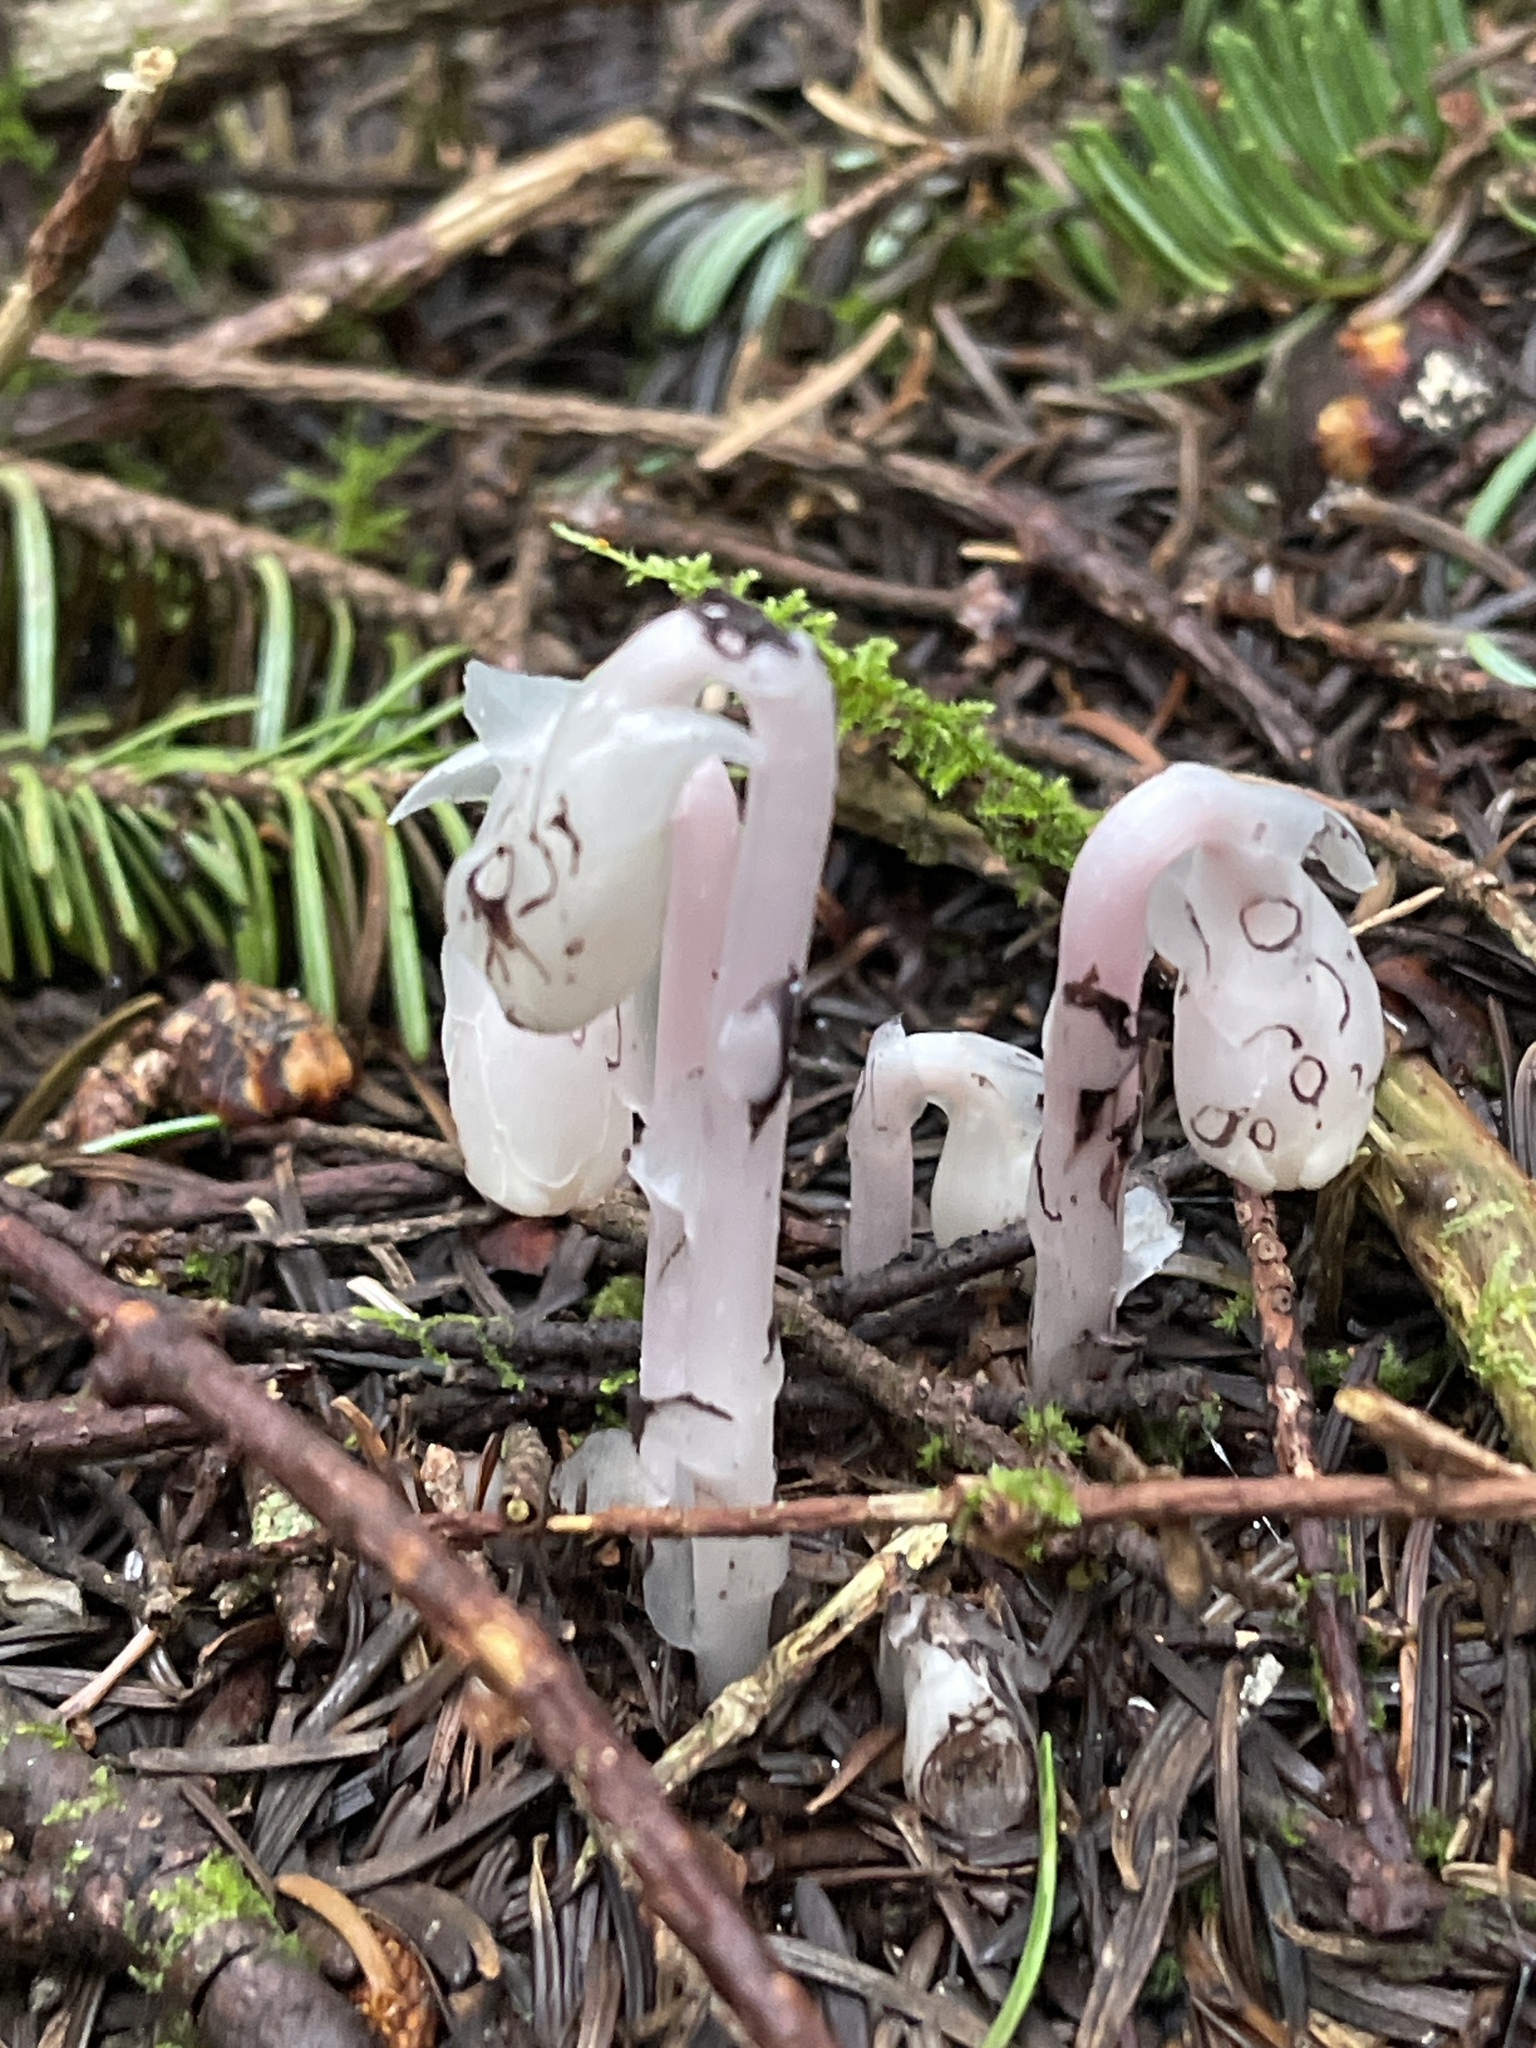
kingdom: Plantae
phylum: Tracheophyta
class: Magnoliopsida
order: Ericales
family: Ericaceae
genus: Monotropa
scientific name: Monotropa uniflora
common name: Convulsion root
